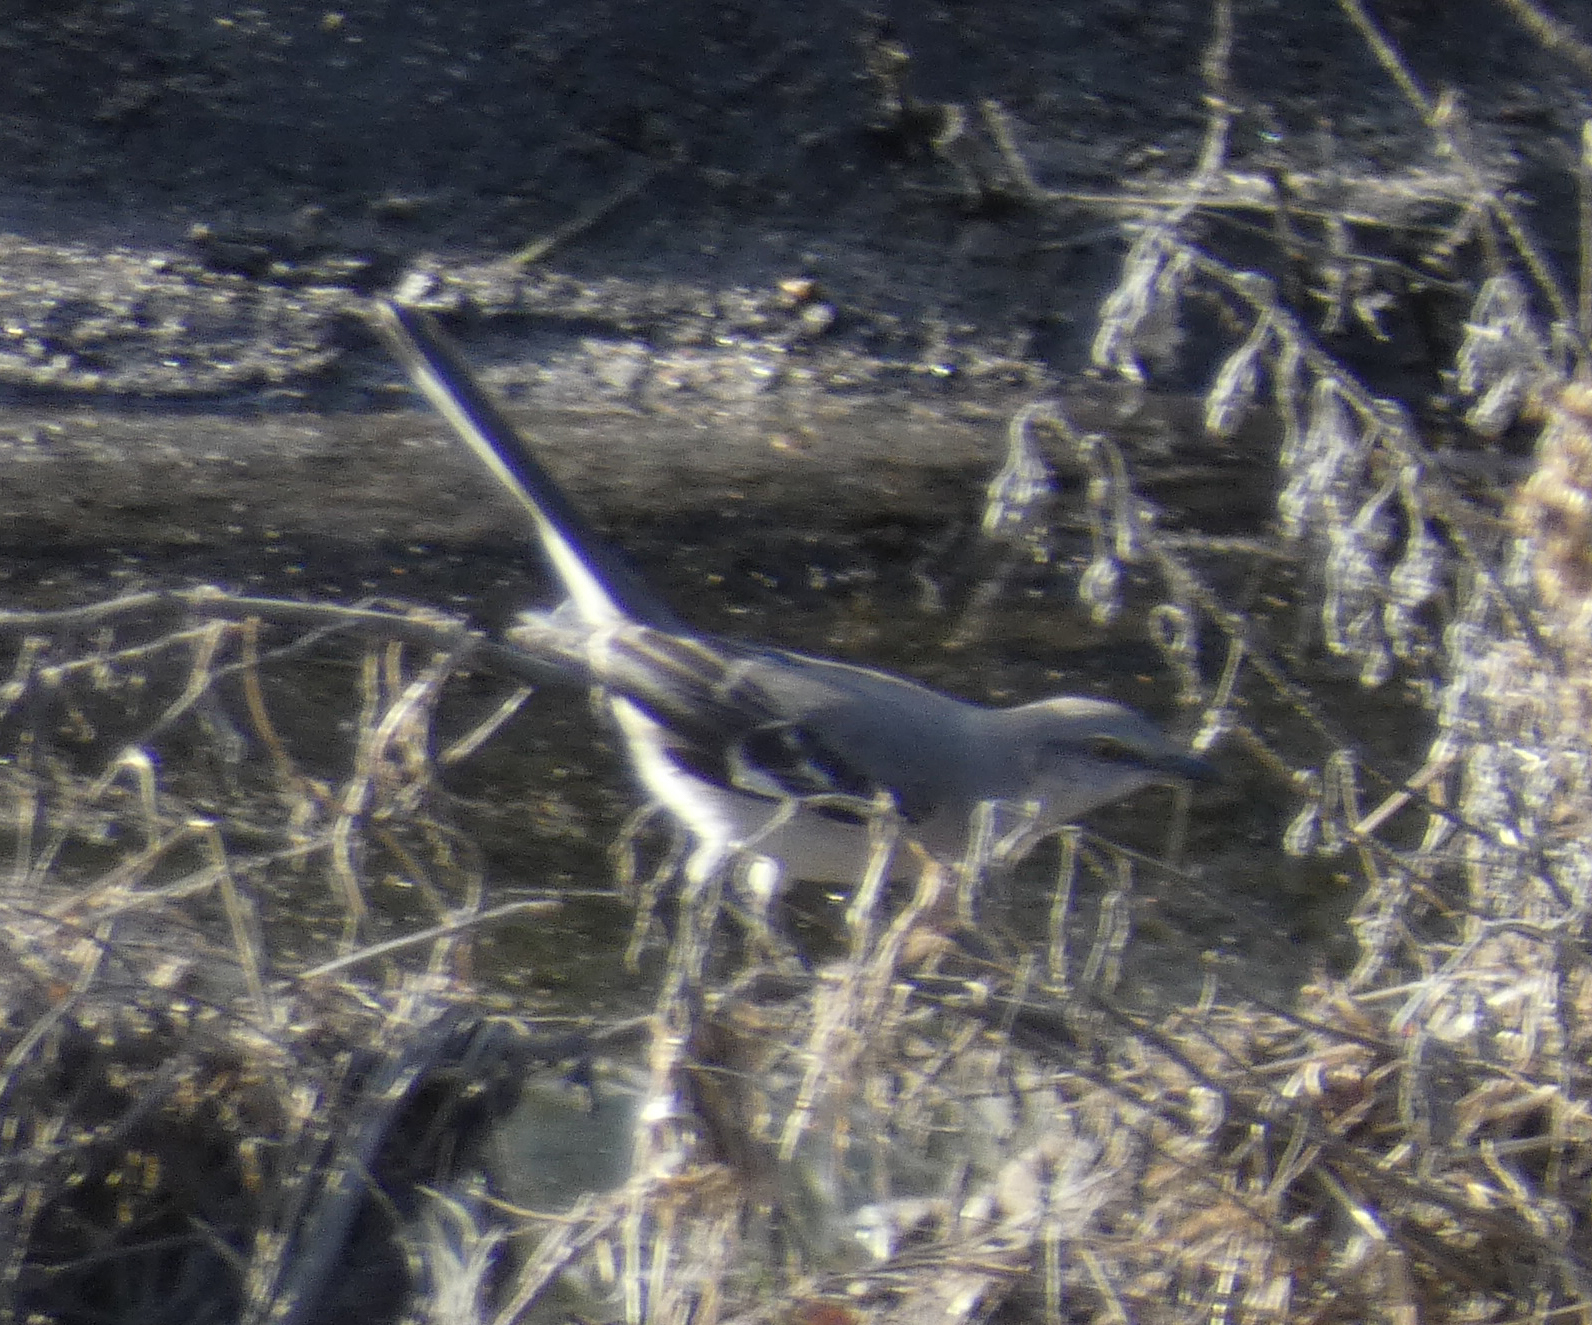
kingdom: Animalia
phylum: Chordata
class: Aves
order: Passeriformes
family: Mimidae
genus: Mimus
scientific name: Mimus polyglottos
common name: Northern mockingbird
